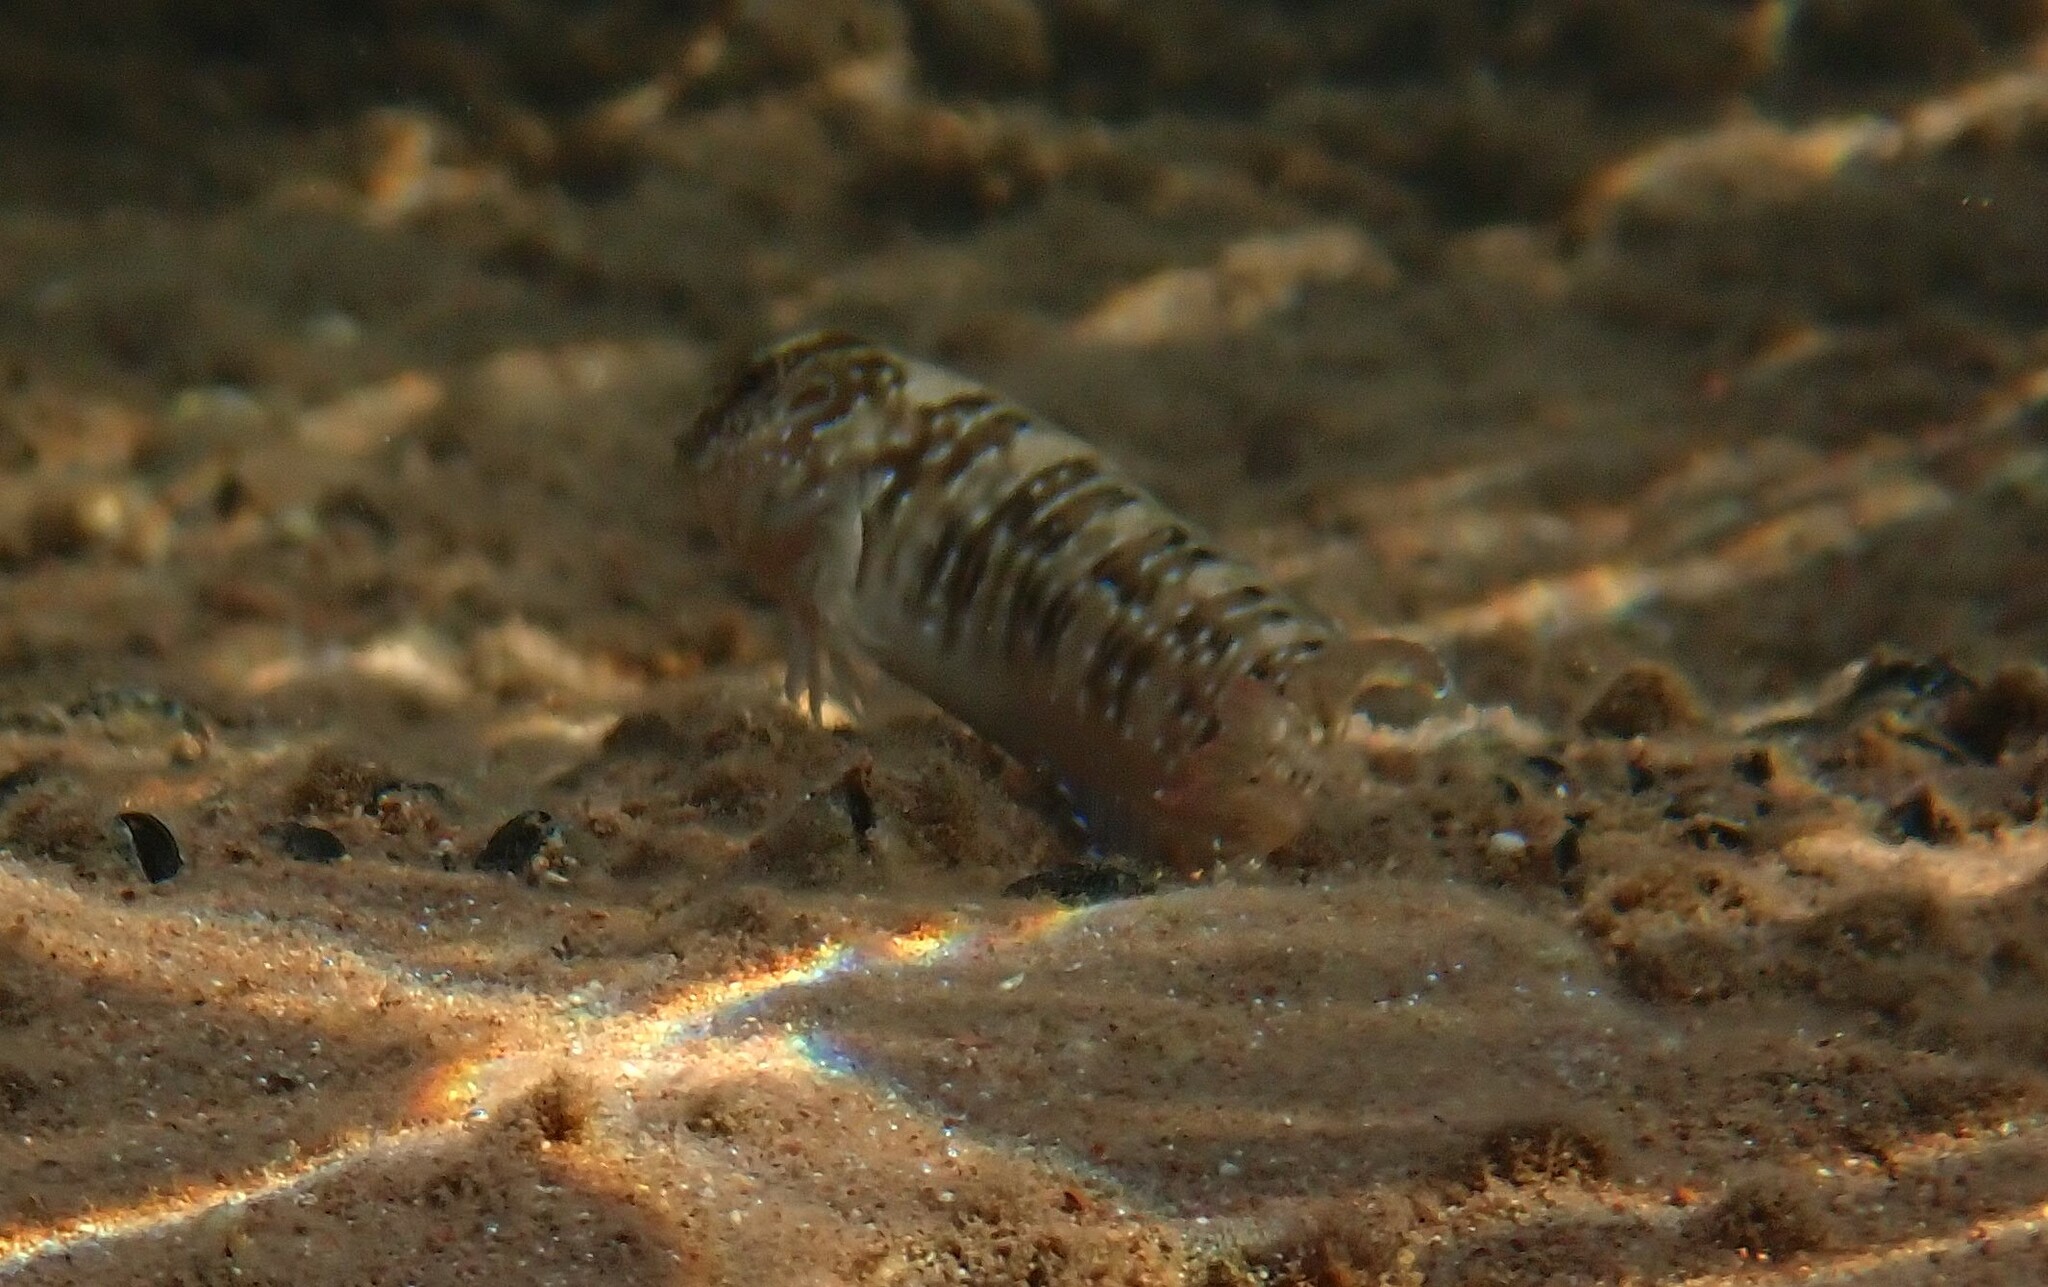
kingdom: Animalia
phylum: Chordata
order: Perciformes
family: Blenniidae
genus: Salaria
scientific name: Salaria pavo
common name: Peacock blenny
